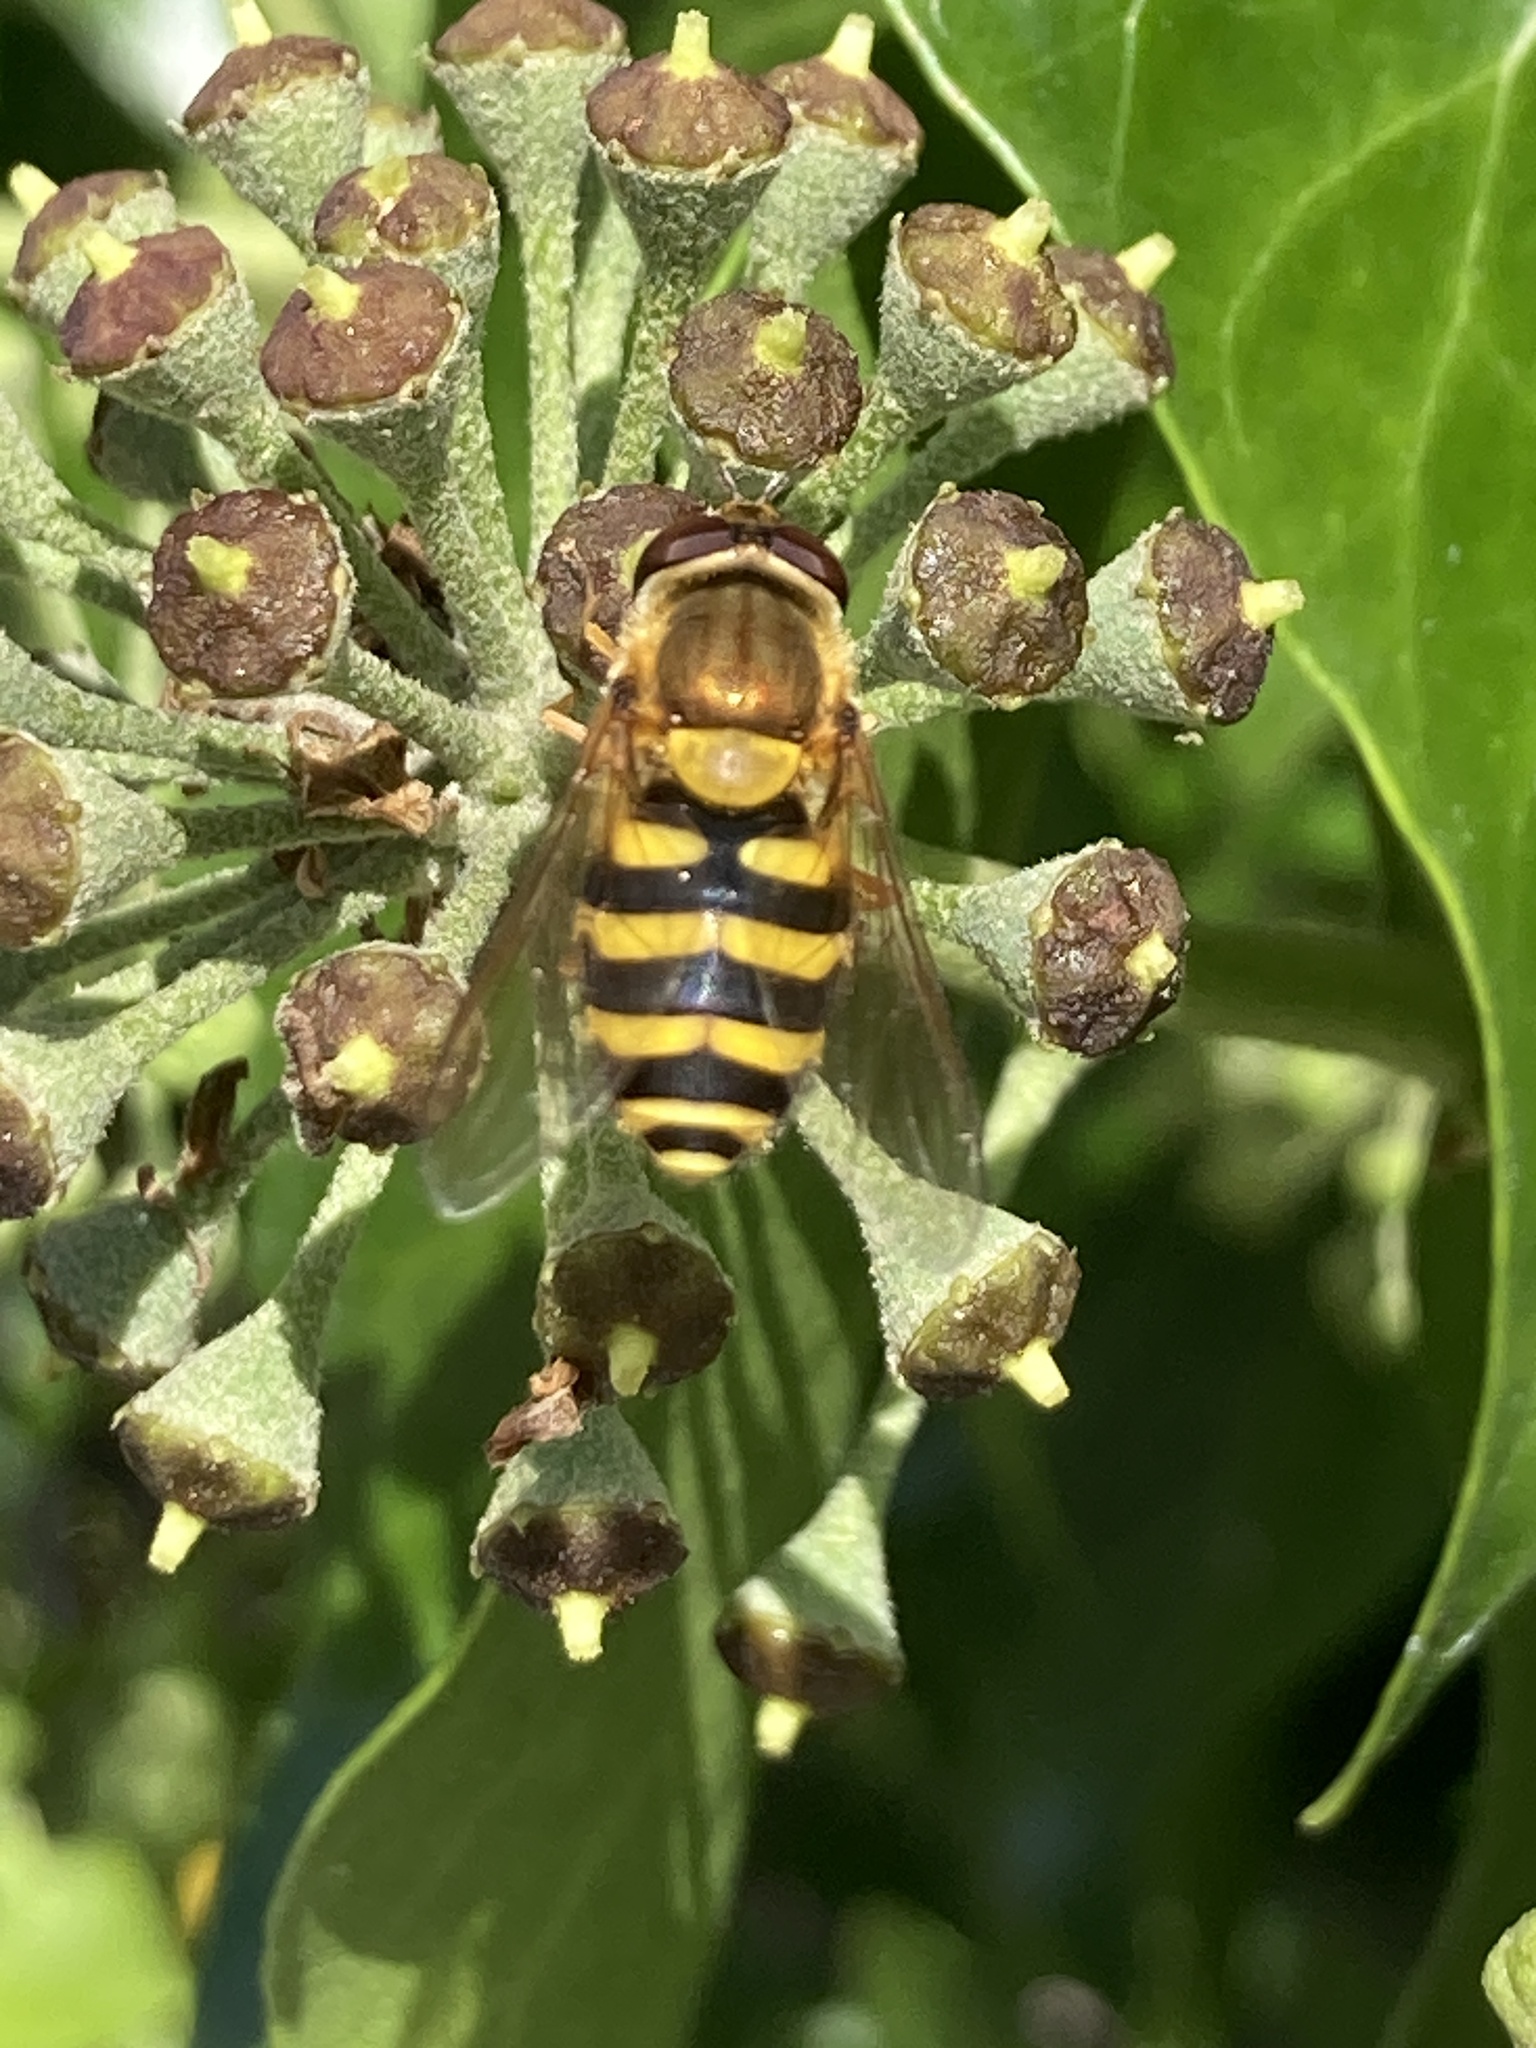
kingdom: Animalia
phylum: Arthropoda
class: Insecta
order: Diptera
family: Syrphidae
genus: Syrphus
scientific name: Syrphus
